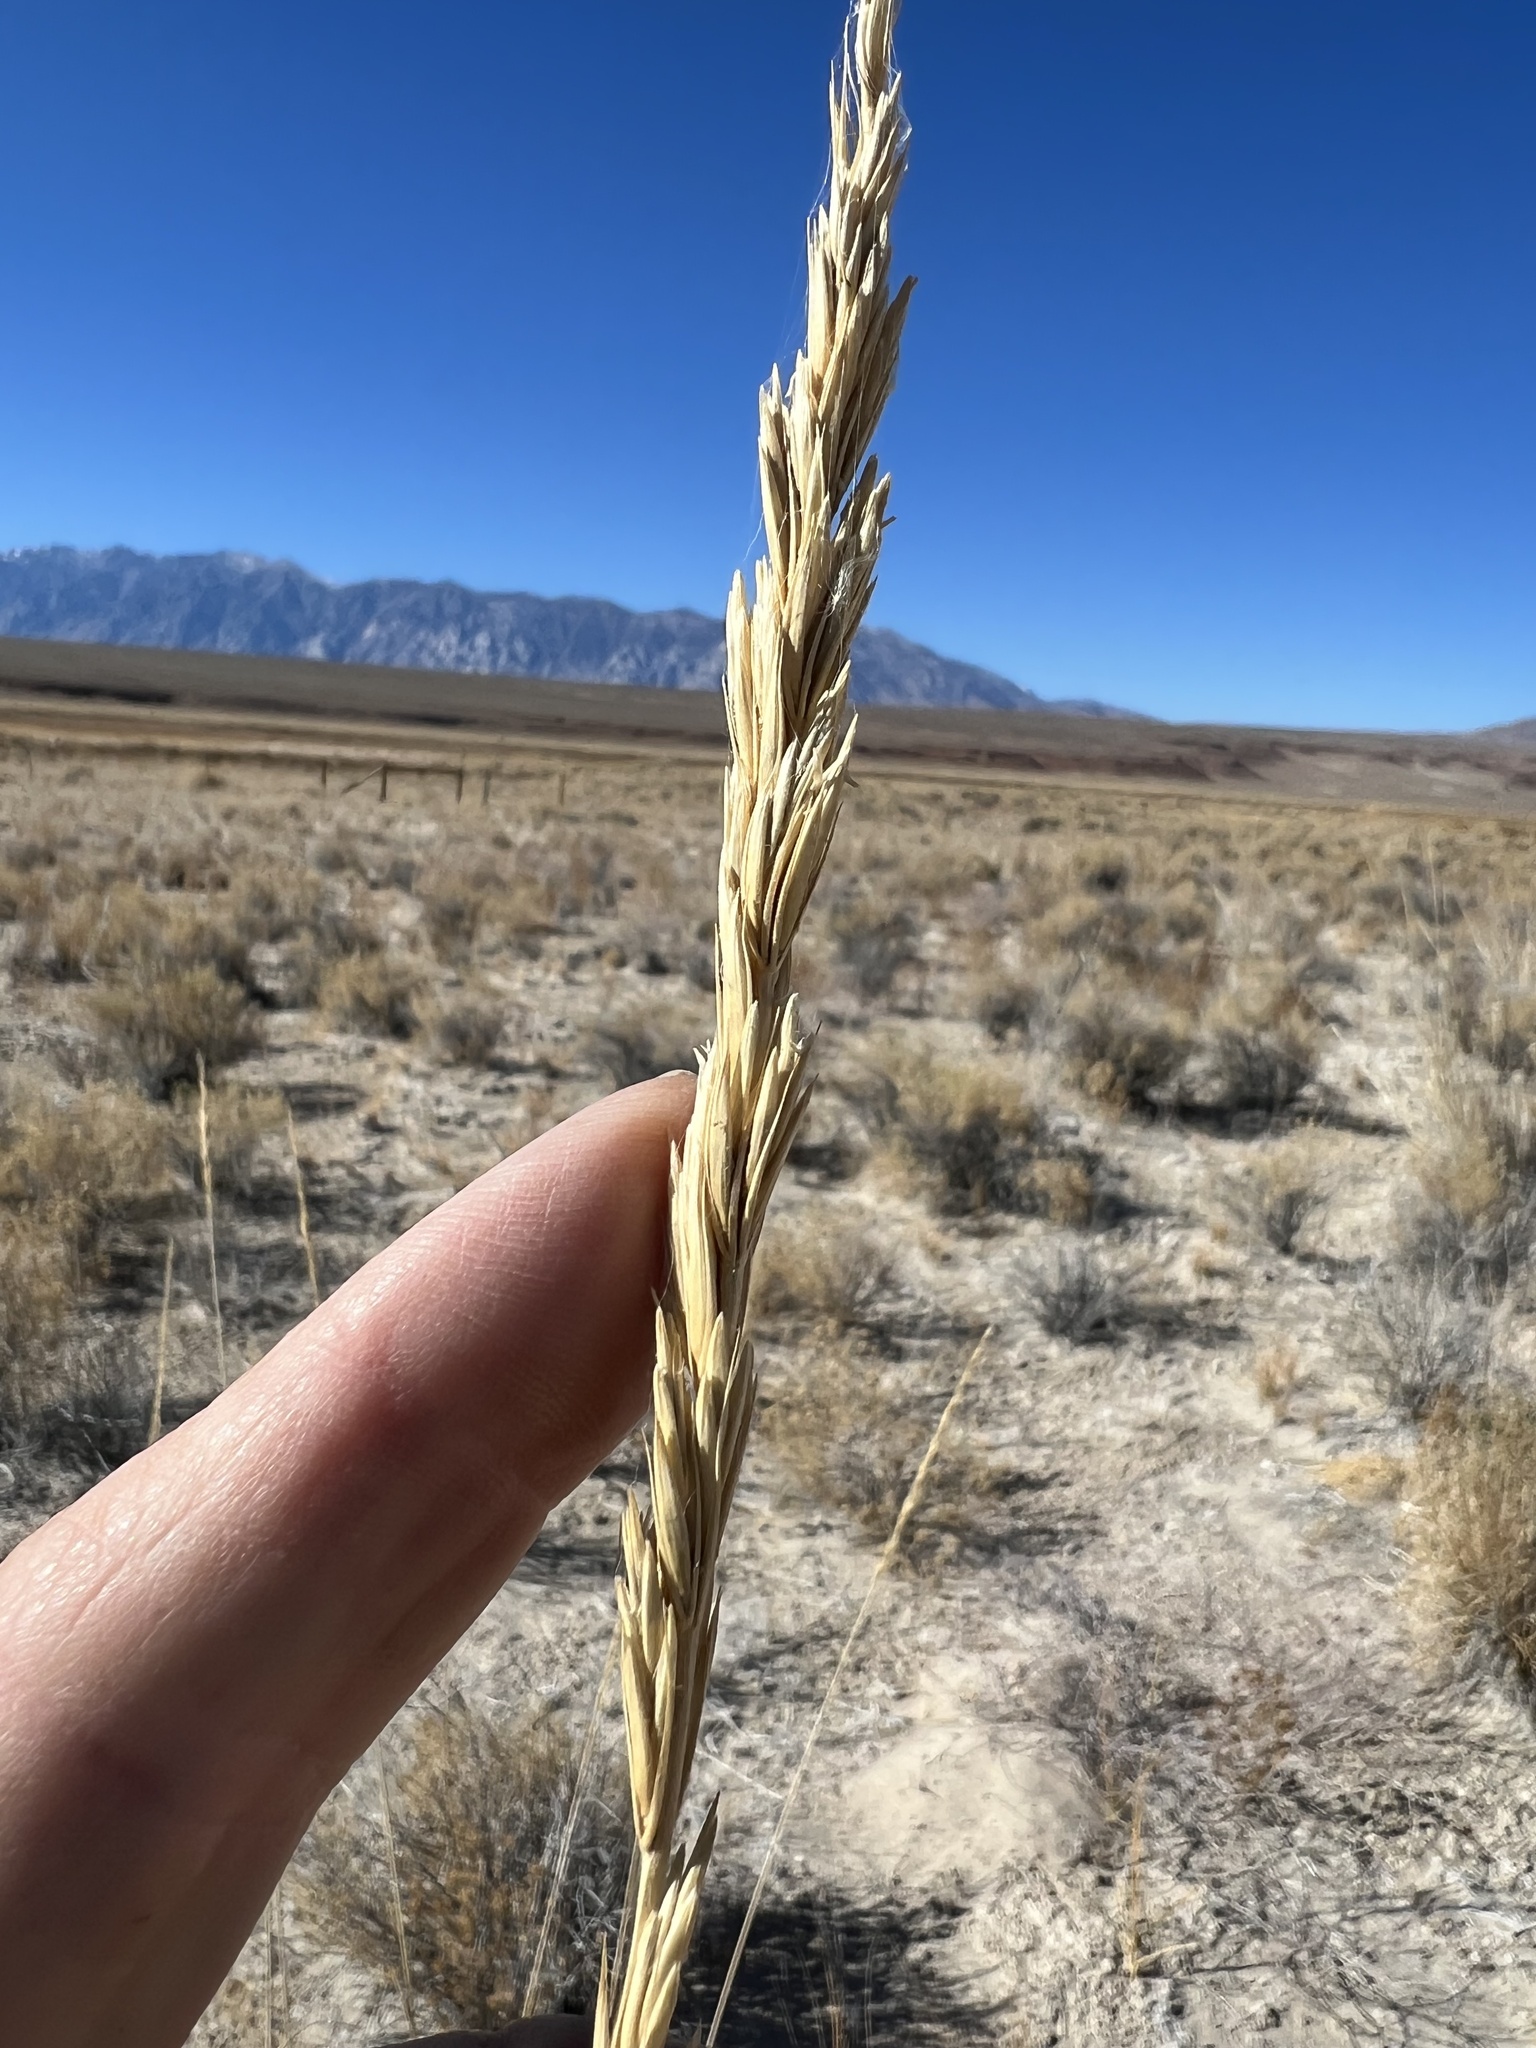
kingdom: Plantae
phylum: Tracheophyta
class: Liliopsida
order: Poales
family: Poaceae
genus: Leymus
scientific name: Leymus cinereus
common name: Basin wild rye
